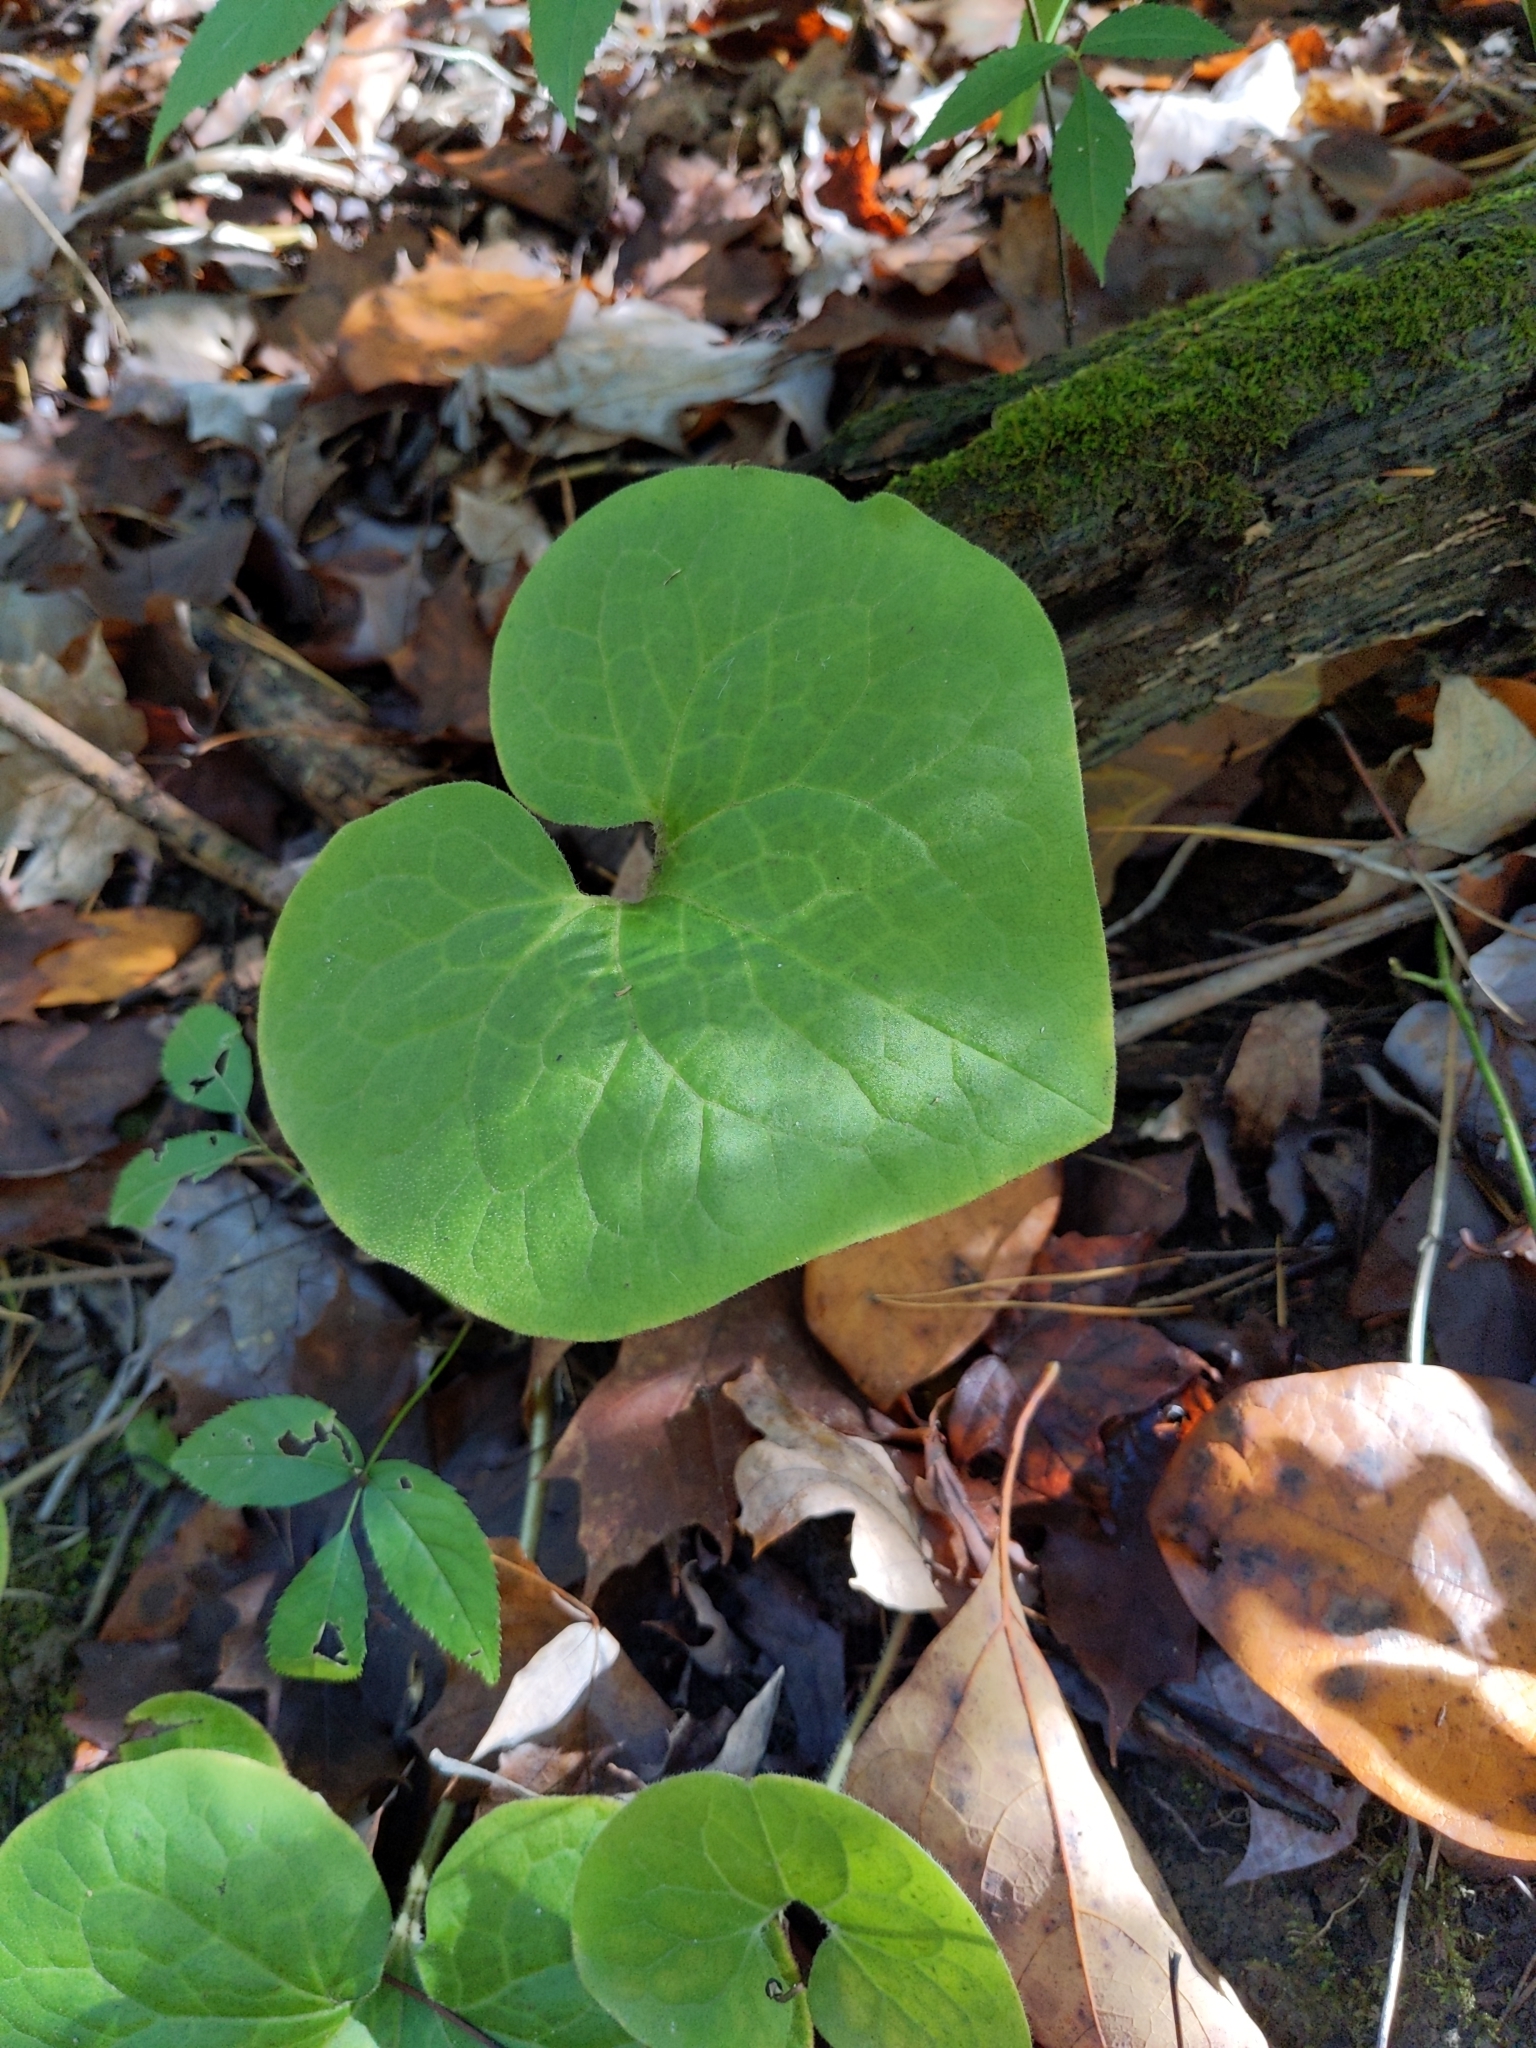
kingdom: Plantae
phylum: Tracheophyta
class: Magnoliopsida
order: Piperales
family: Aristolochiaceae
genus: Asarum
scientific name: Asarum canadense
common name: Wild ginger
